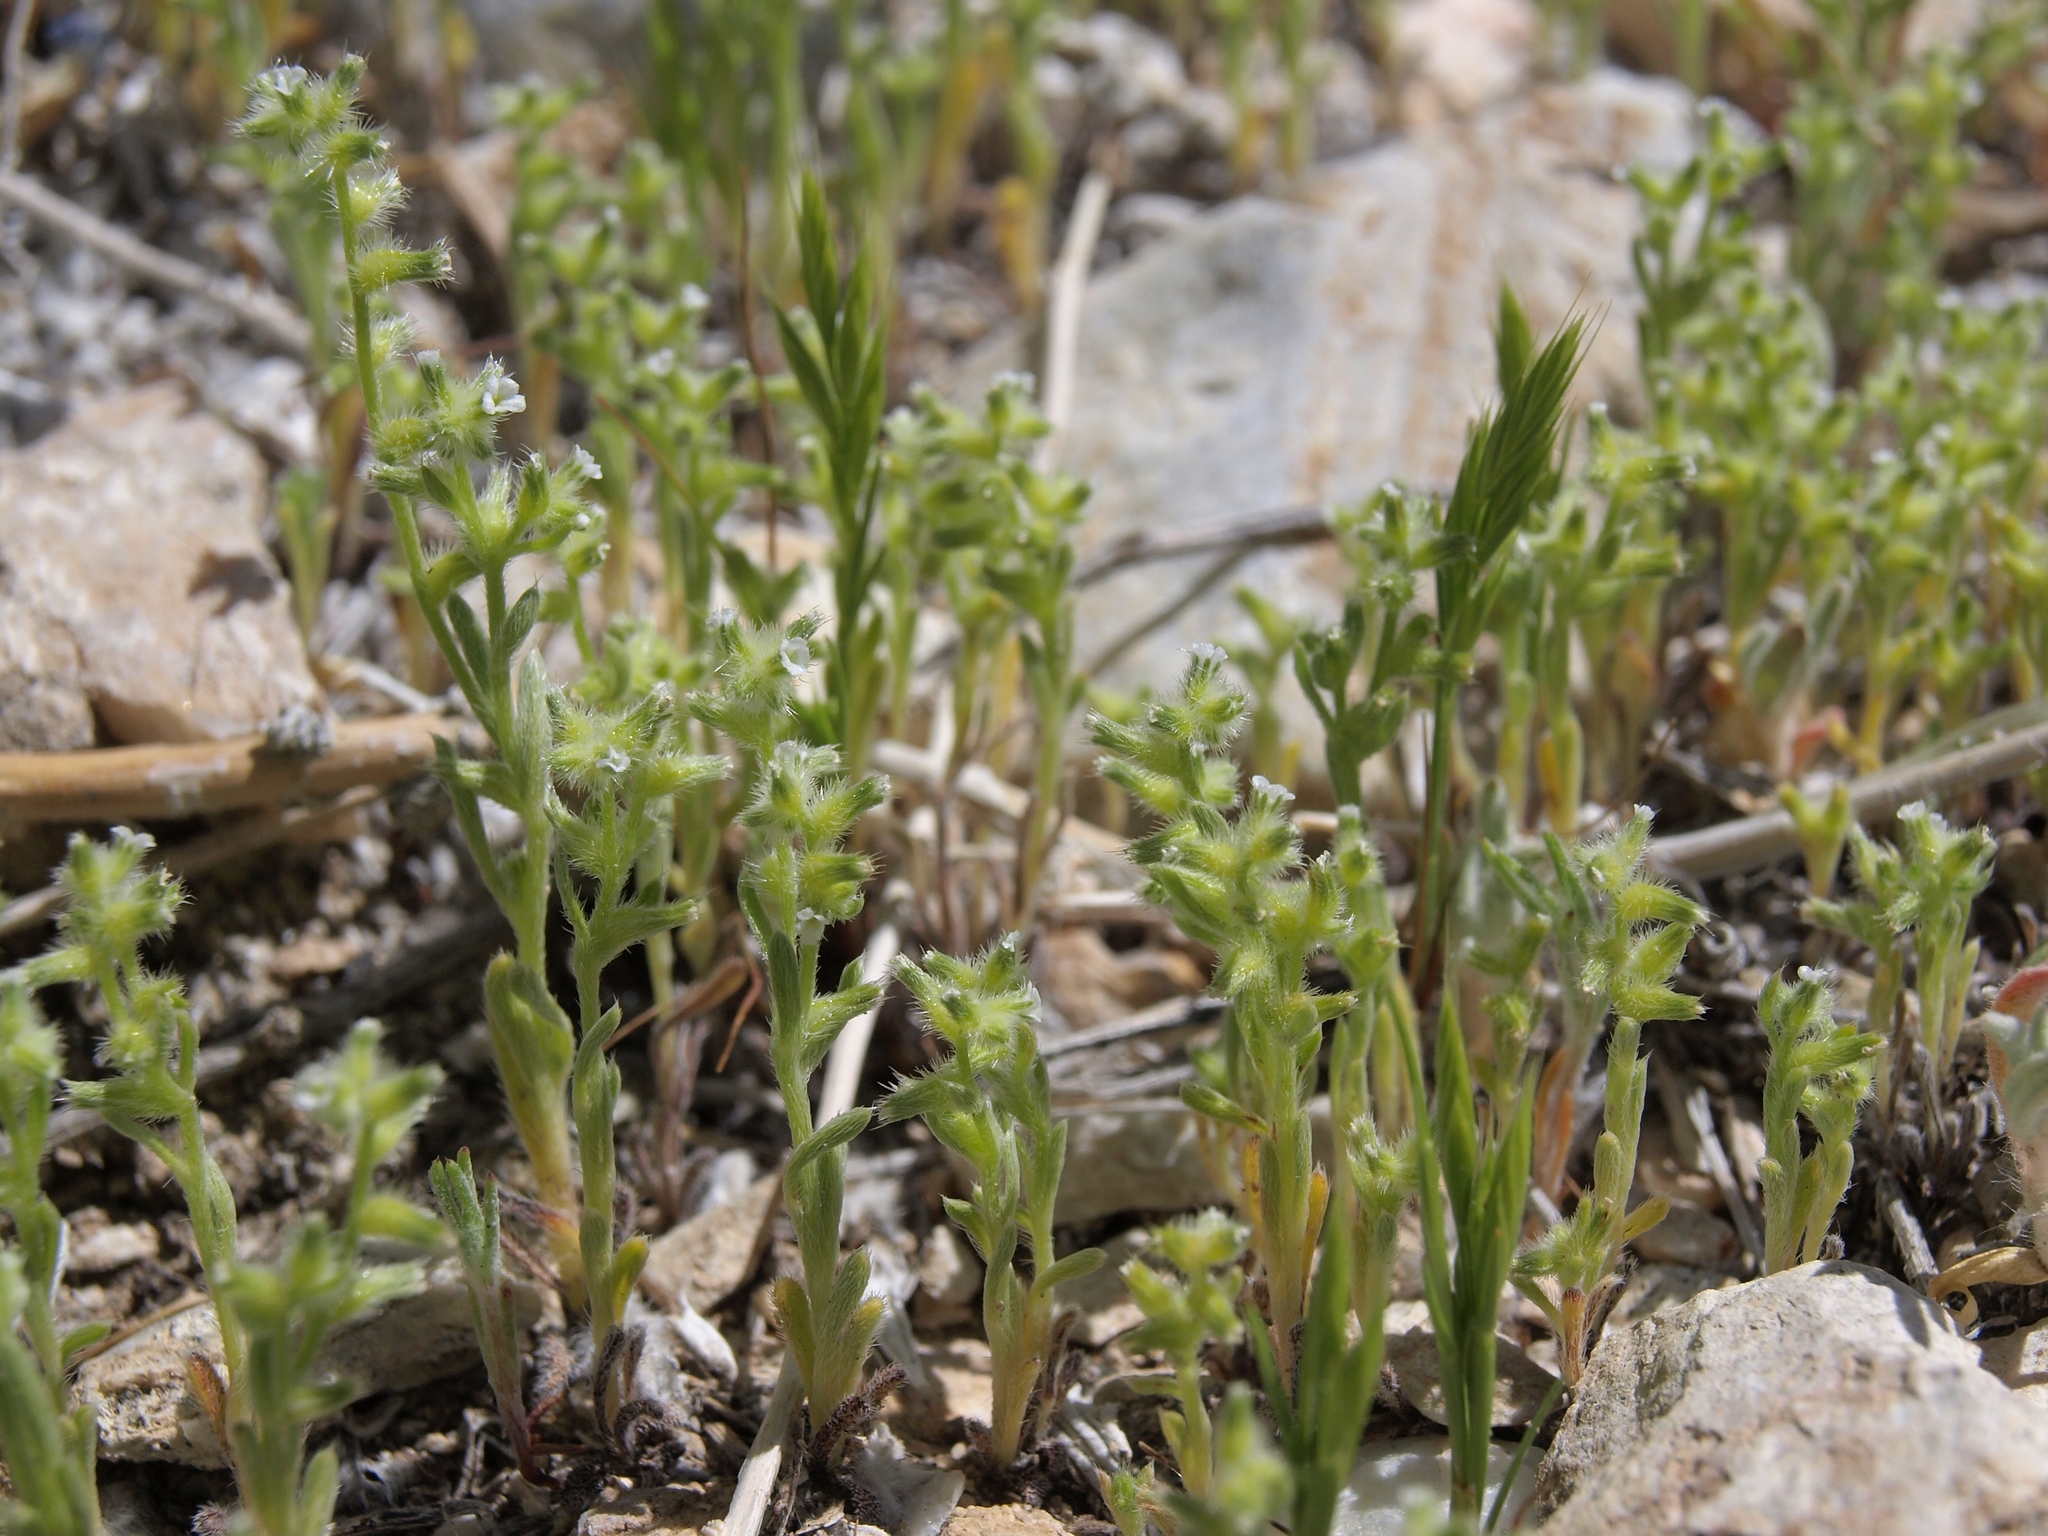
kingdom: Plantae
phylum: Tracheophyta
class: Magnoliopsida
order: Boraginales
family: Boraginaceae
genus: Cryptantha
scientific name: Cryptantha recurvata
